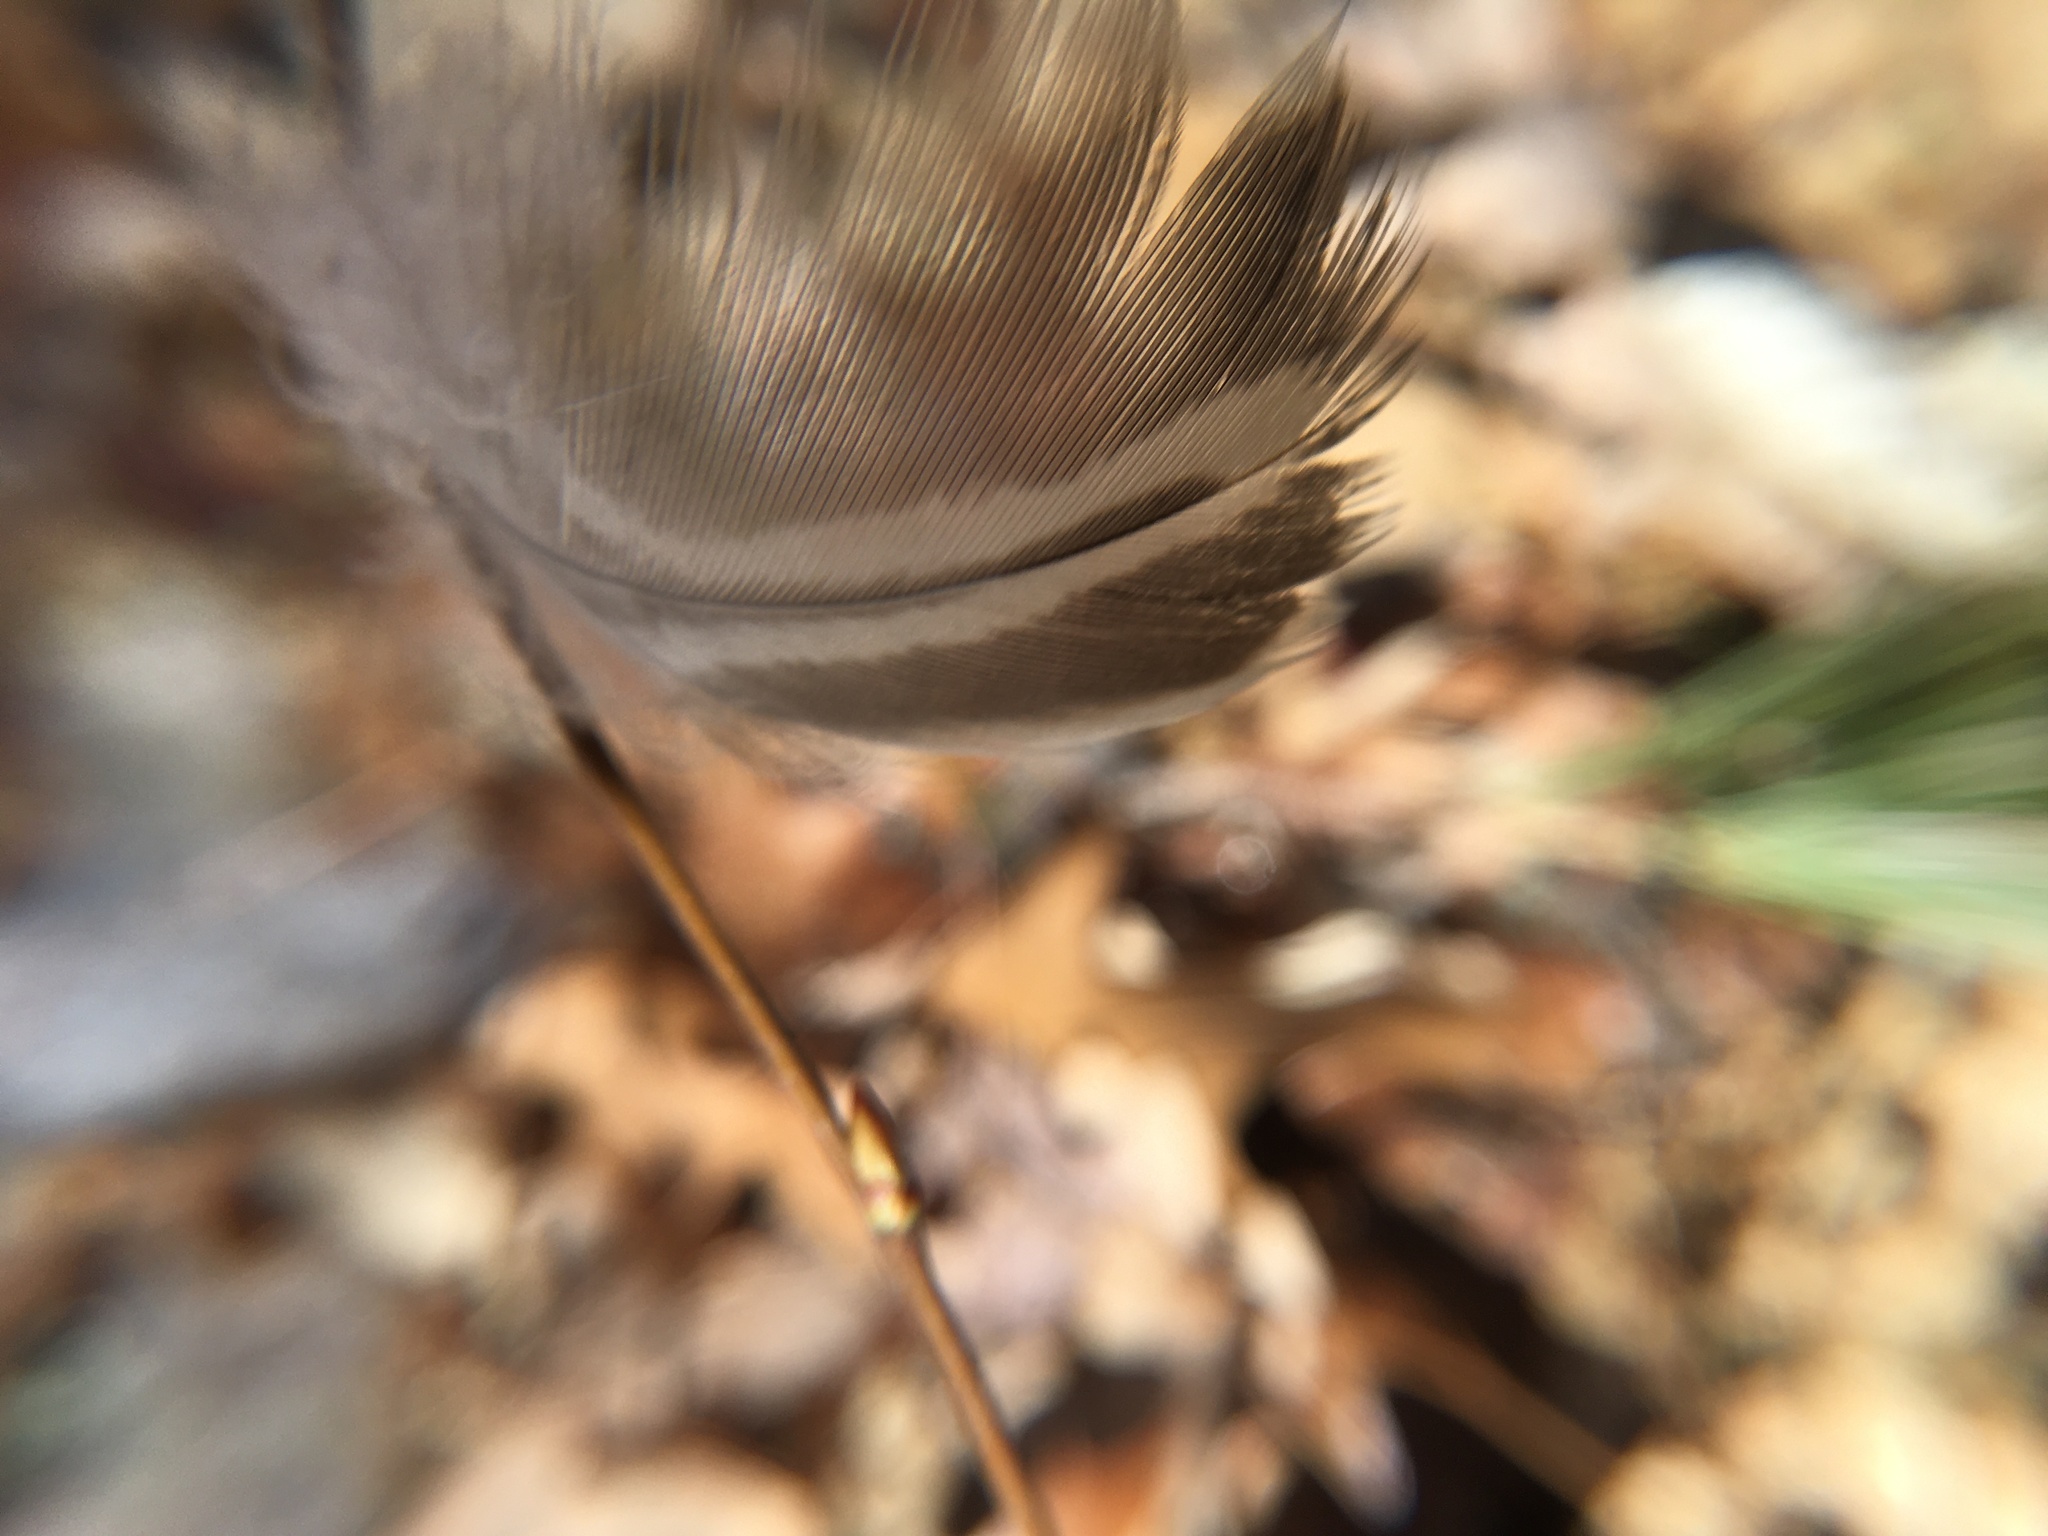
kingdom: Animalia
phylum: Chordata
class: Aves
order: Anseriformes
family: Anatidae
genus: Anas
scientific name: Anas platyrhynchos
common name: Mallard
